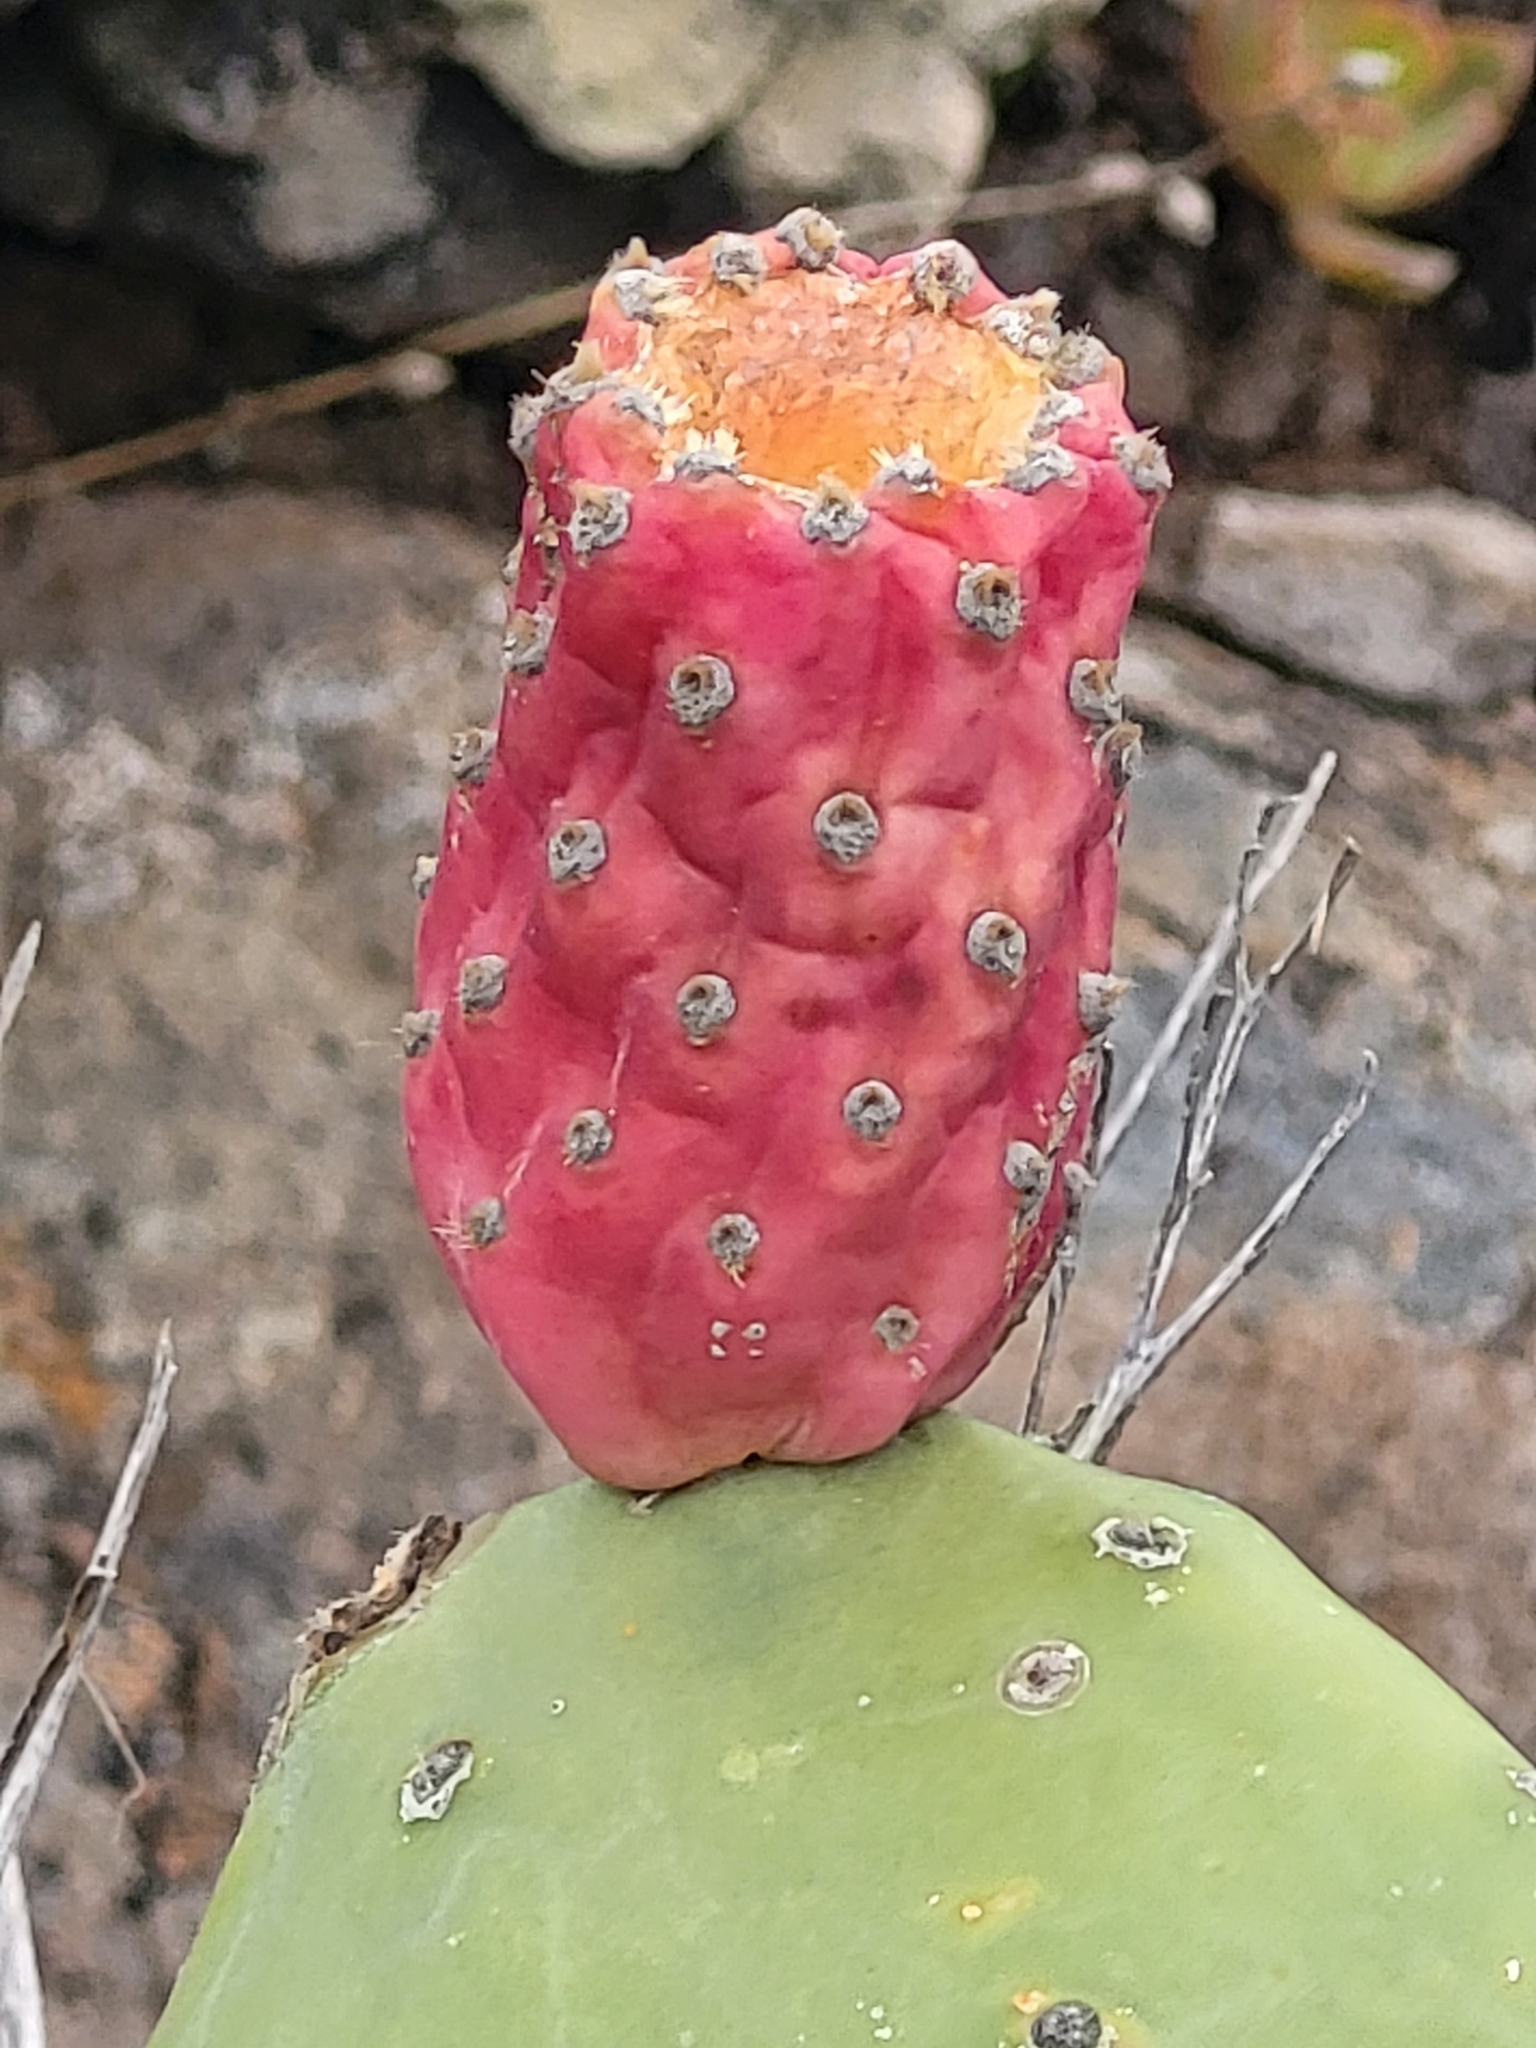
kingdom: Plantae
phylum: Tracheophyta
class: Magnoliopsida
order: Caryophyllales
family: Cactaceae
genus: Opuntia
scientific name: Opuntia ficus-indica
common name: Barbary fig
